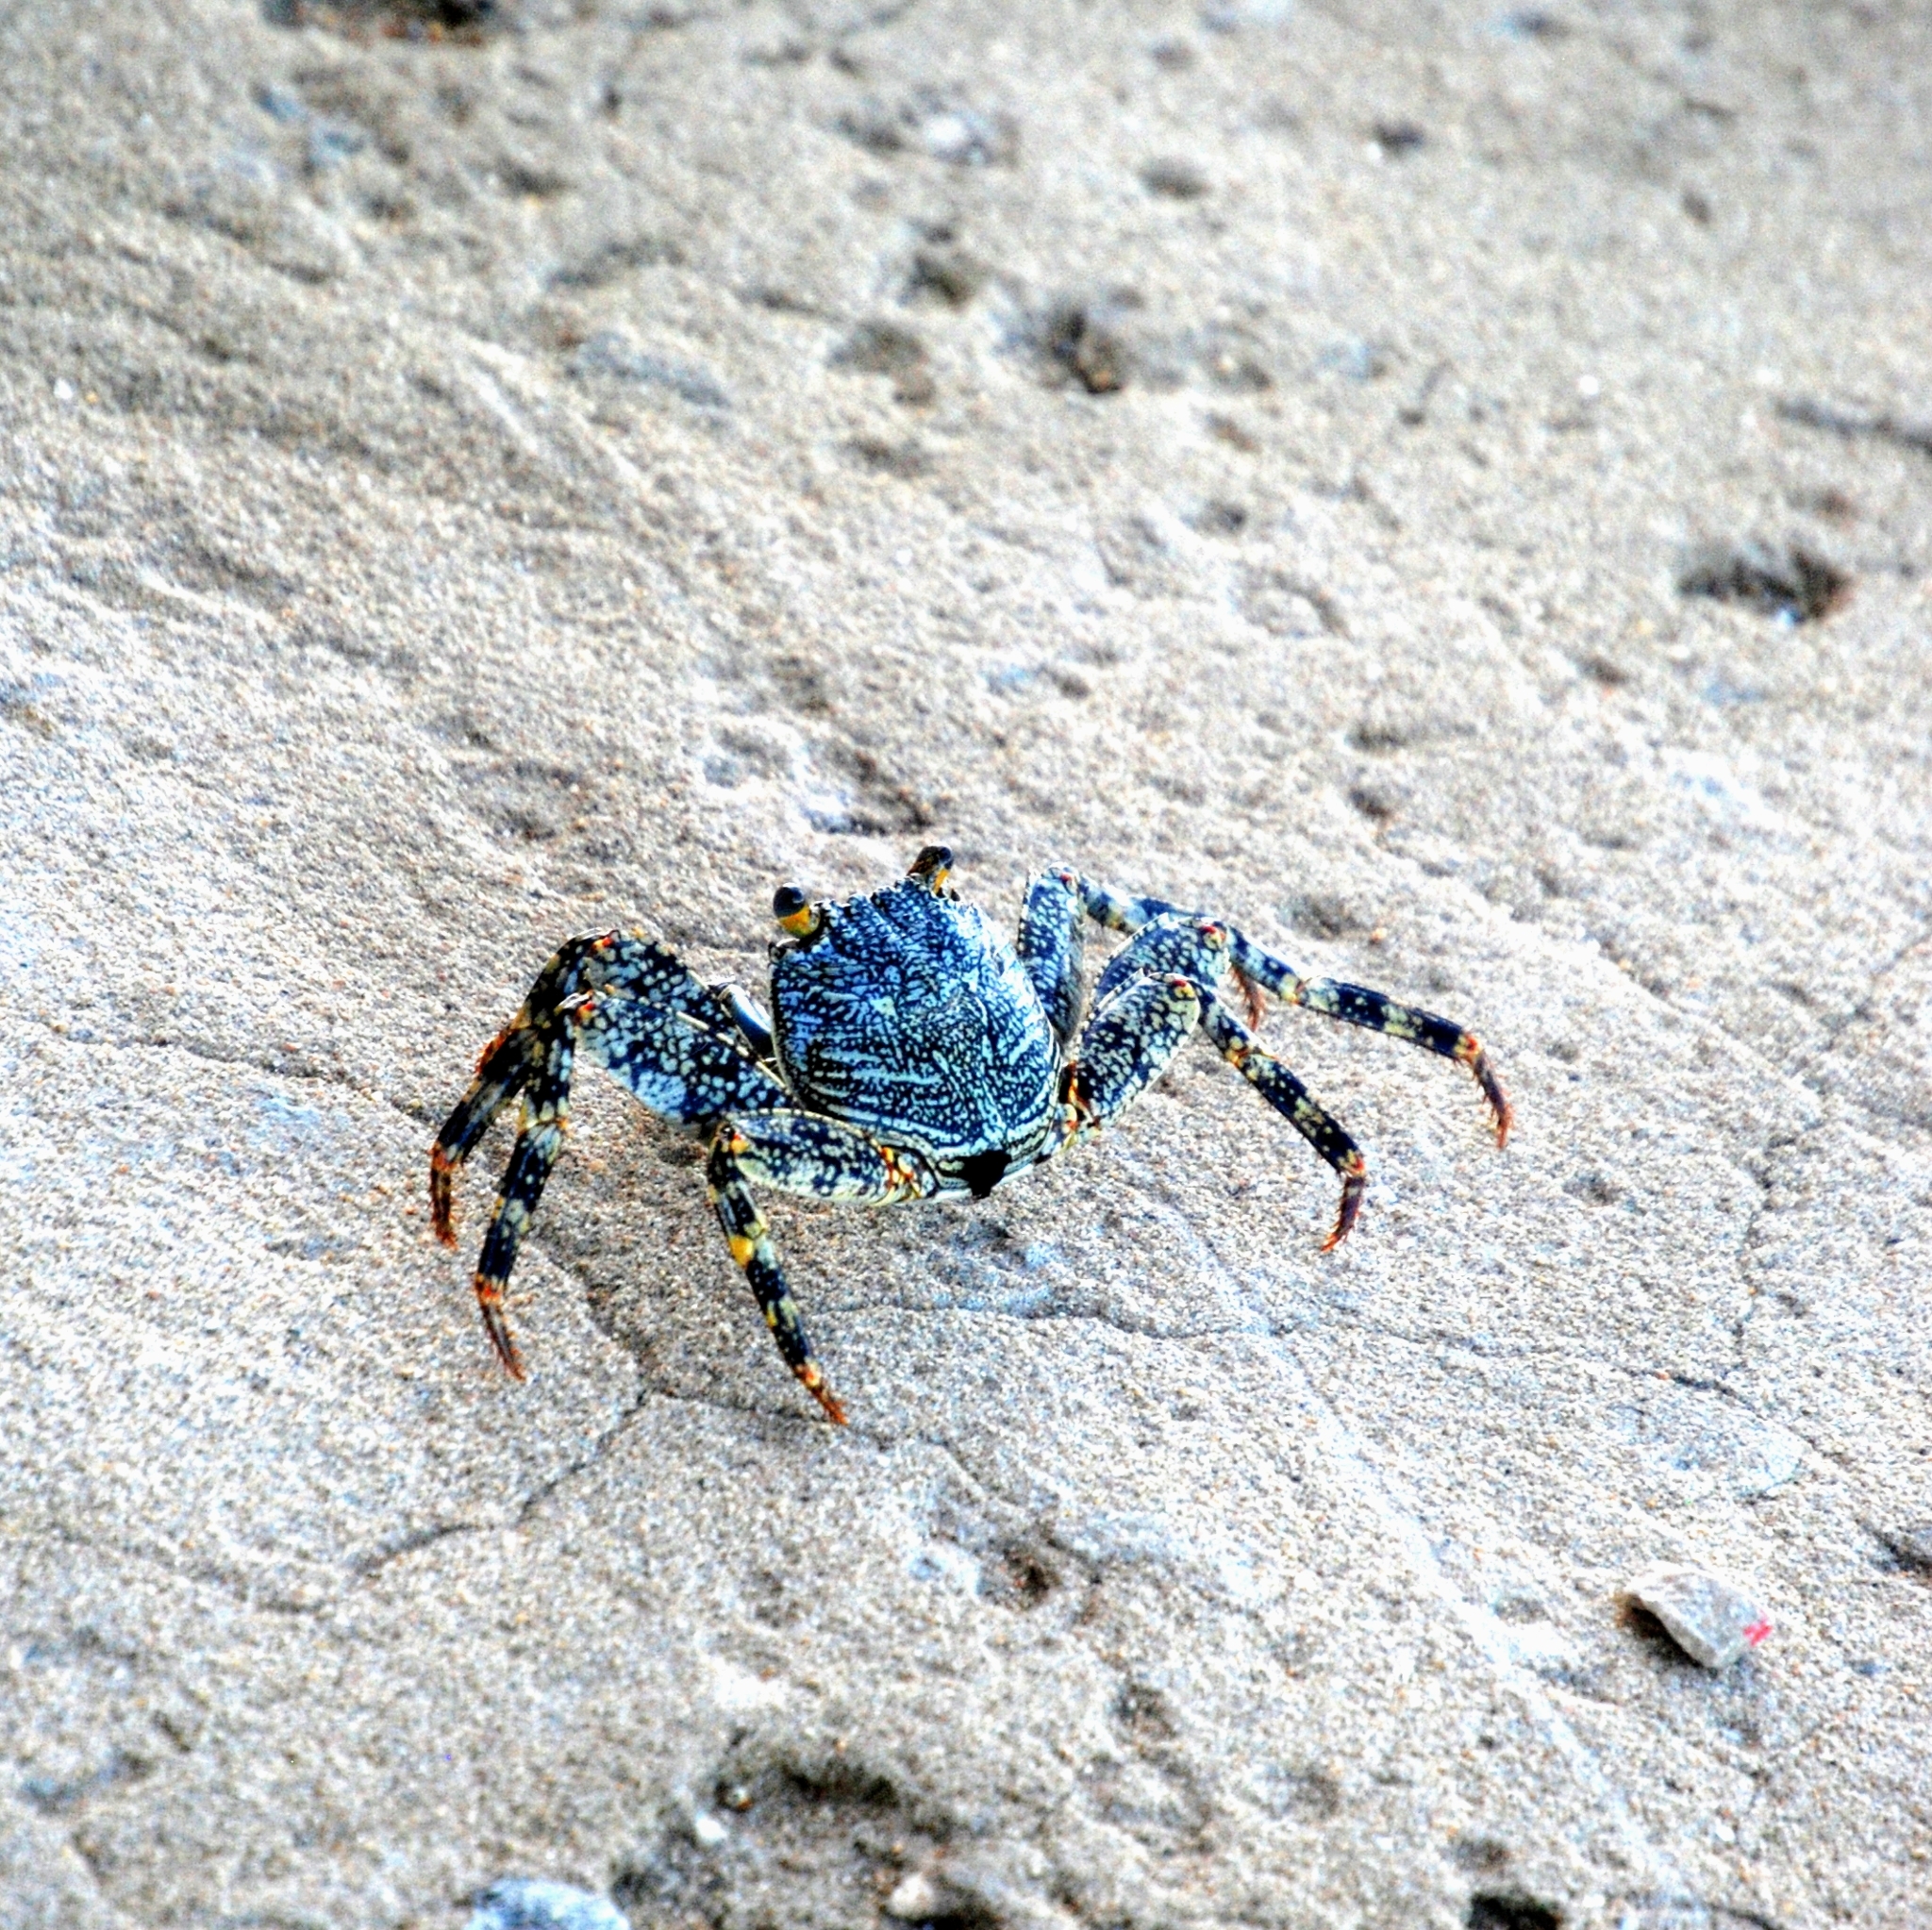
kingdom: Animalia
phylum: Arthropoda
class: Malacostraca
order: Decapoda
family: Gecarcinidae
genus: Cardisoma
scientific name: Cardisoma guanhumi
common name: Great land crab
